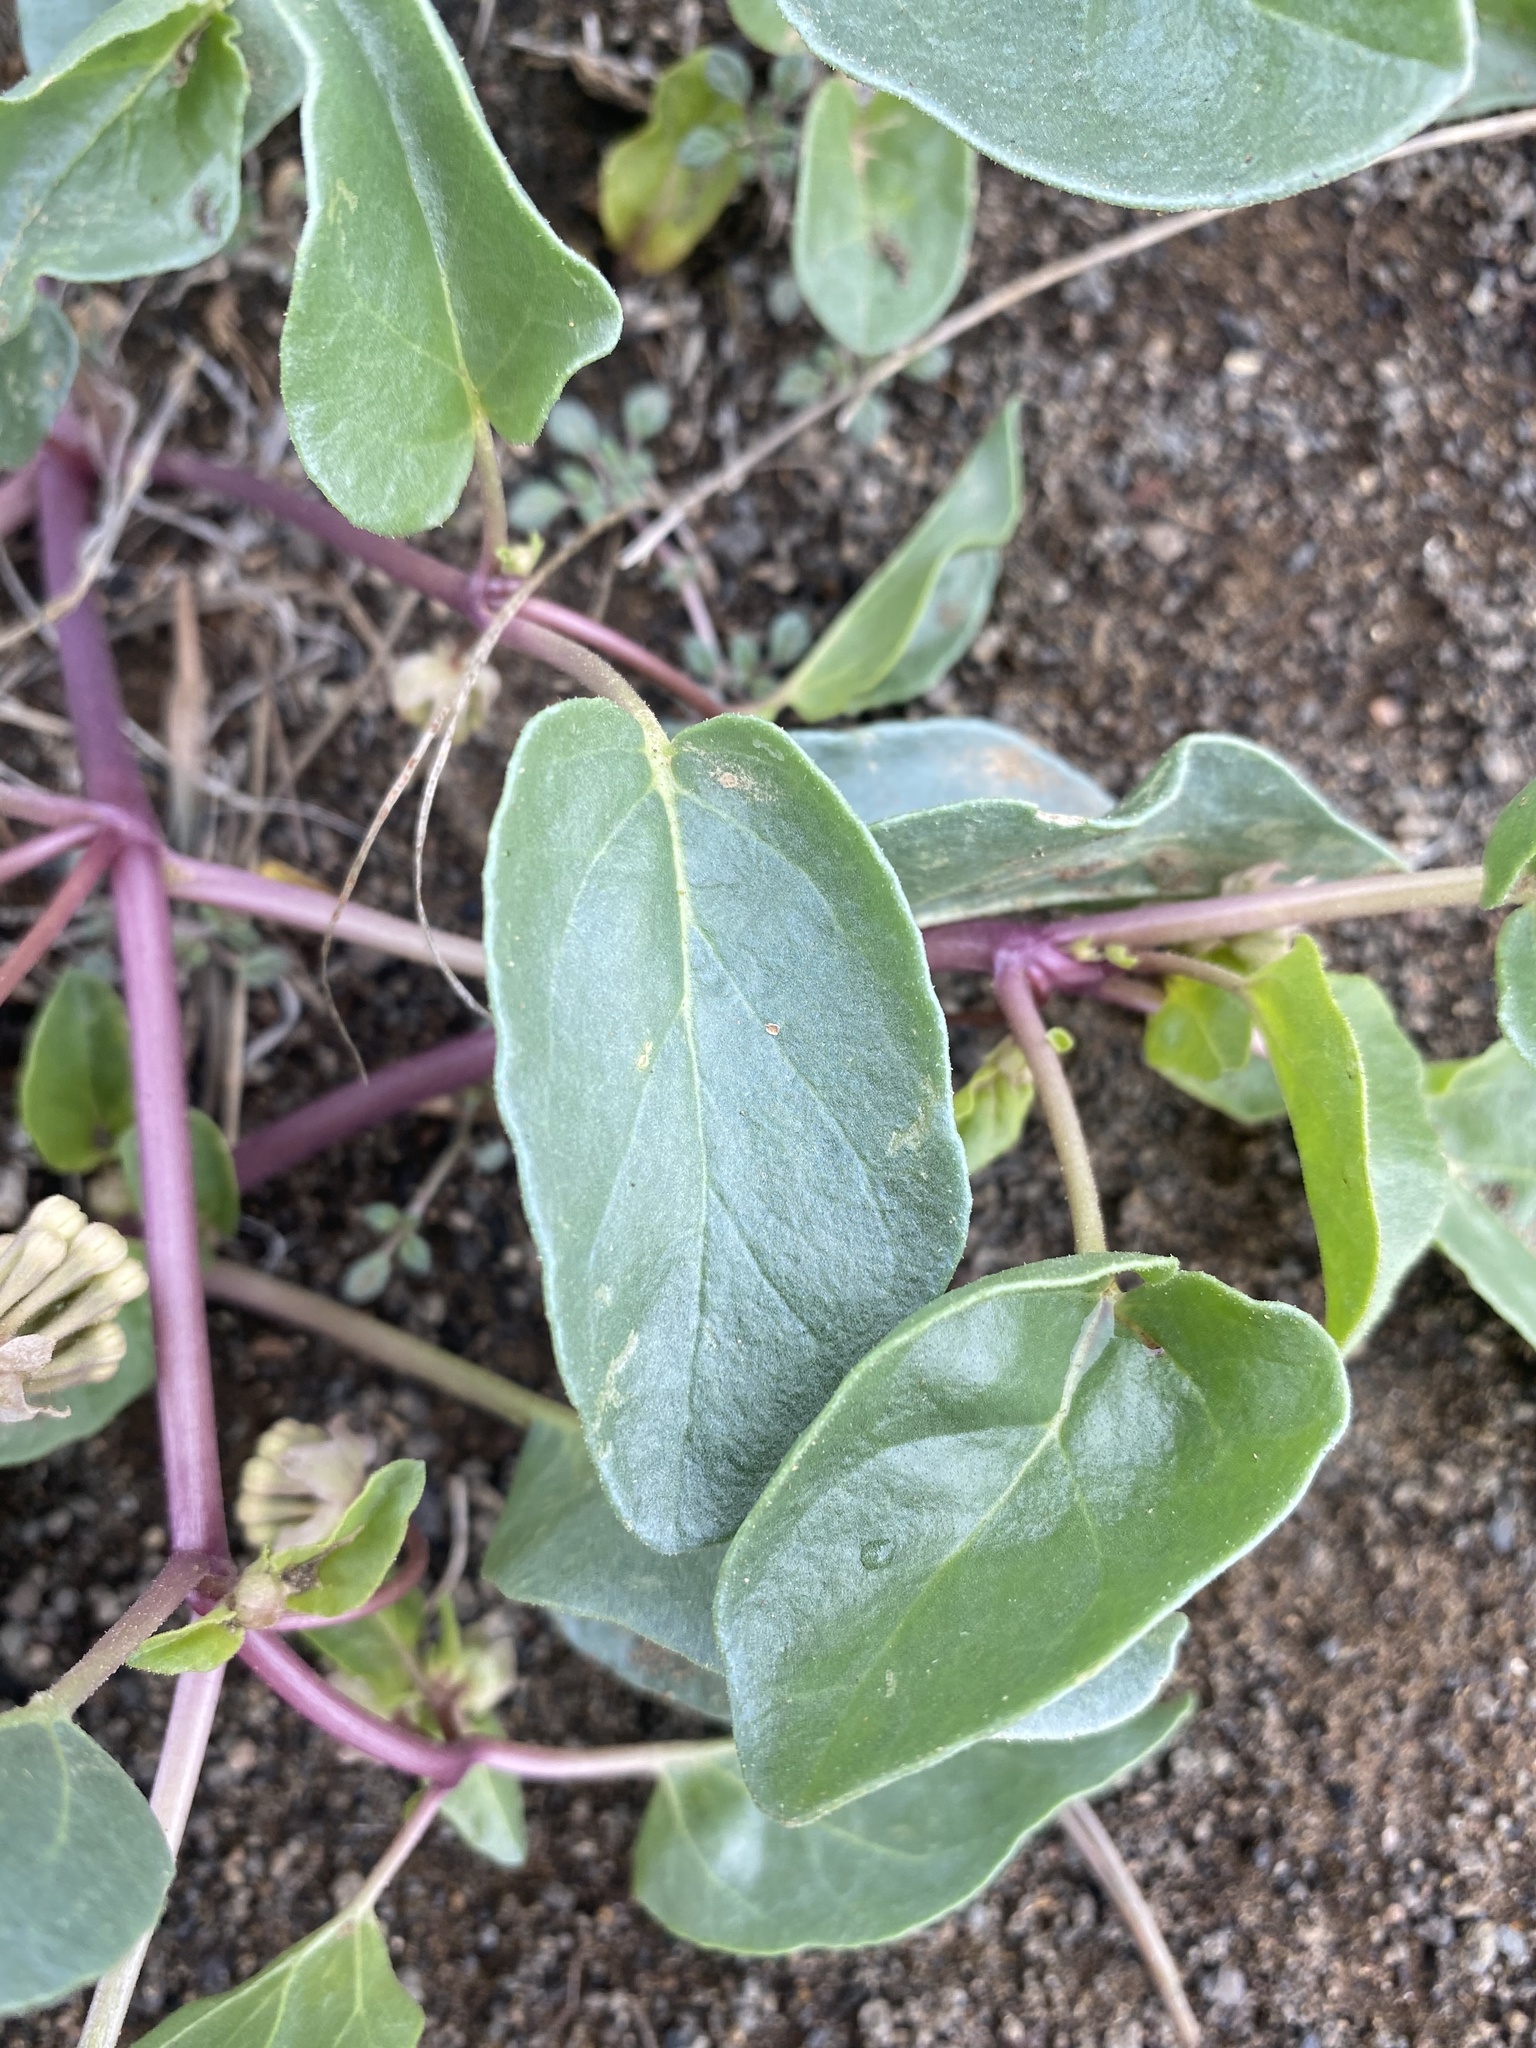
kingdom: Plantae
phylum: Tracheophyta
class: Magnoliopsida
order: Caryophyllales
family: Nyctaginaceae
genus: Abronia
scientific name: Abronia mellifera
